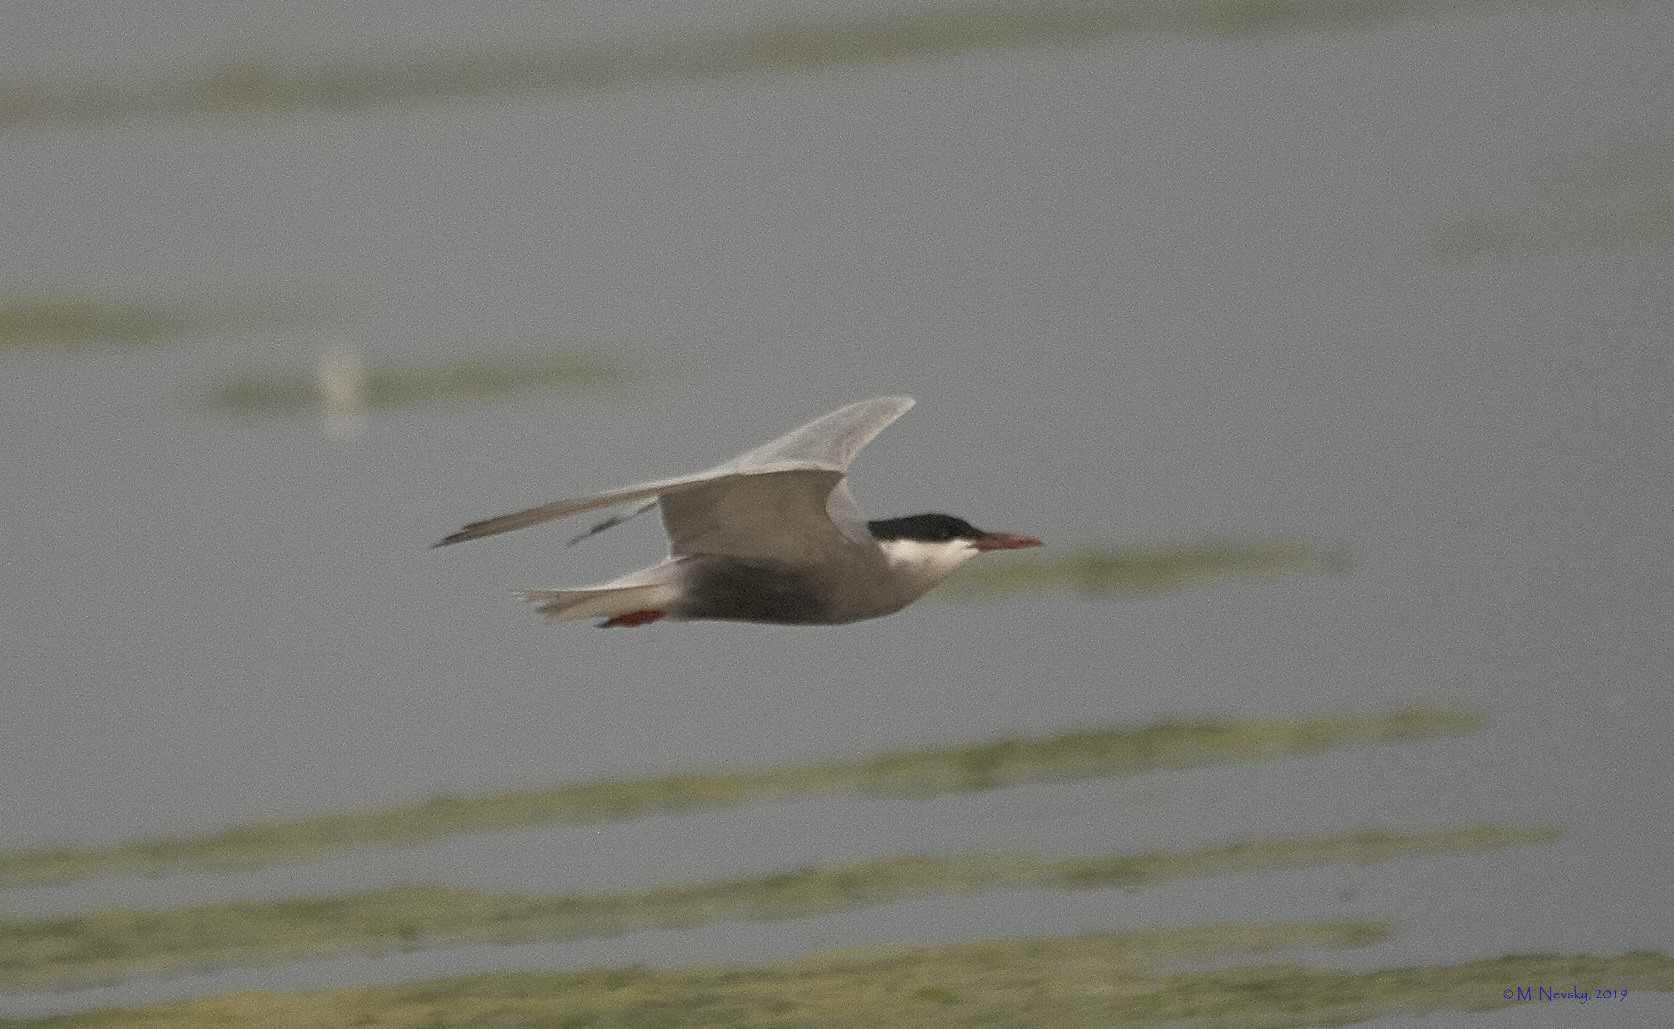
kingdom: Animalia
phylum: Chordata
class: Aves
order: Charadriiformes
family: Laridae
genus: Chlidonias
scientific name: Chlidonias hybrida
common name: Whiskered tern
